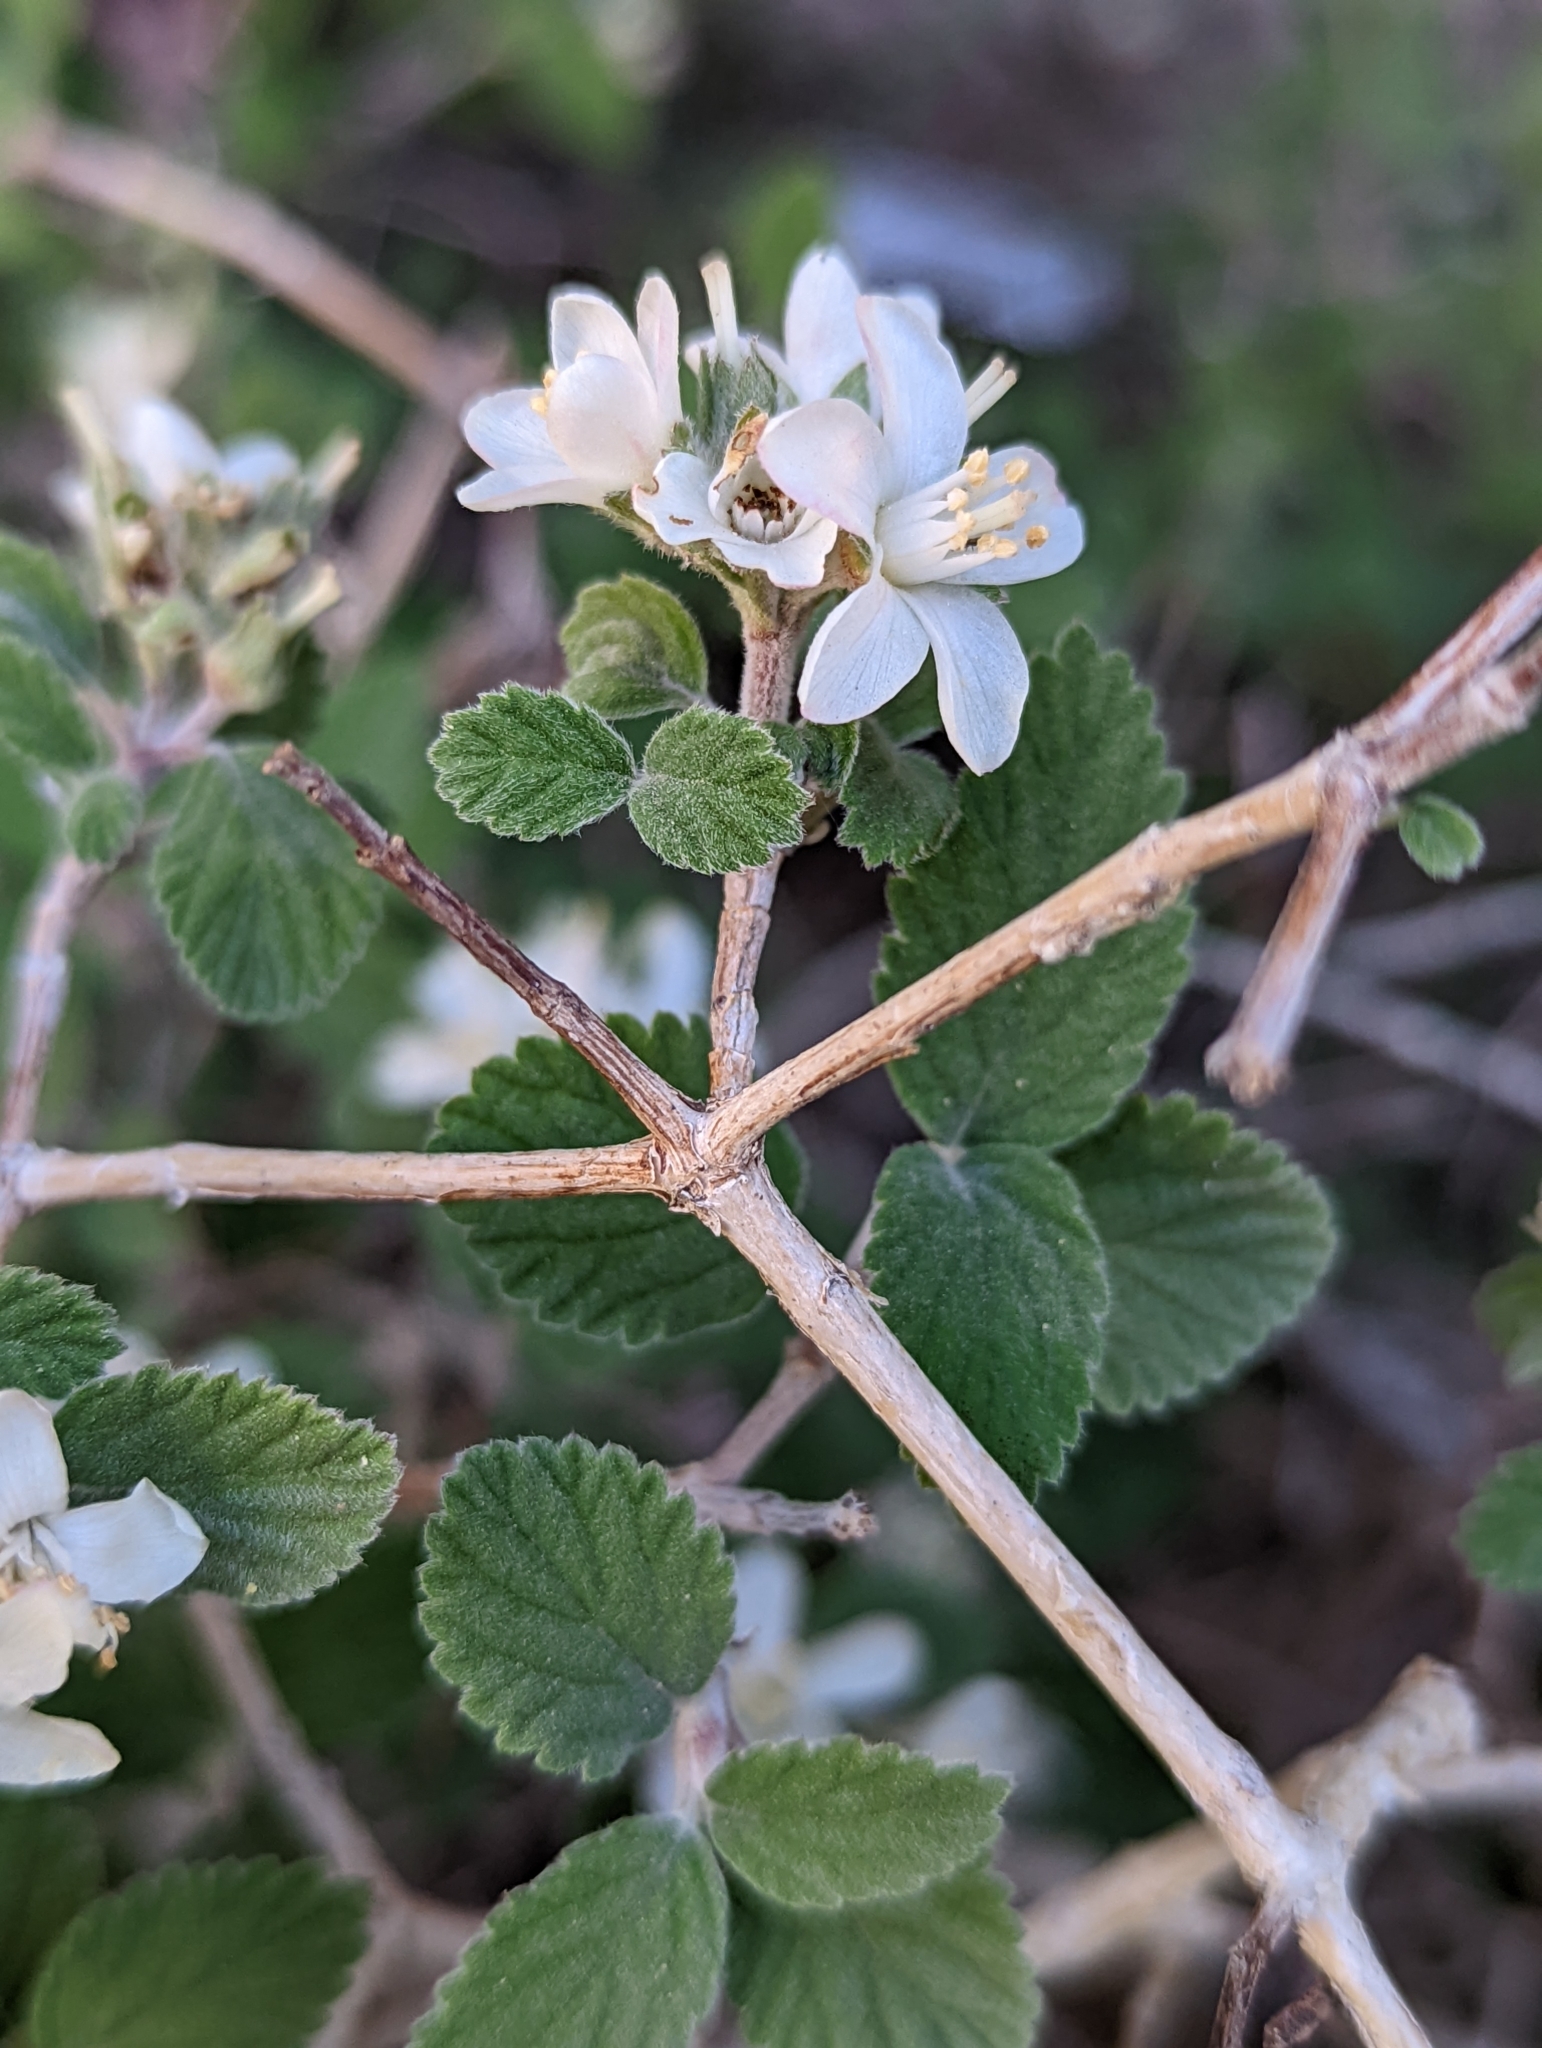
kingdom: Plantae
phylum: Tracheophyta
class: Magnoliopsida
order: Cornales
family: Hydrangeaceae
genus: Jamesia
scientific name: Jamesia americana
